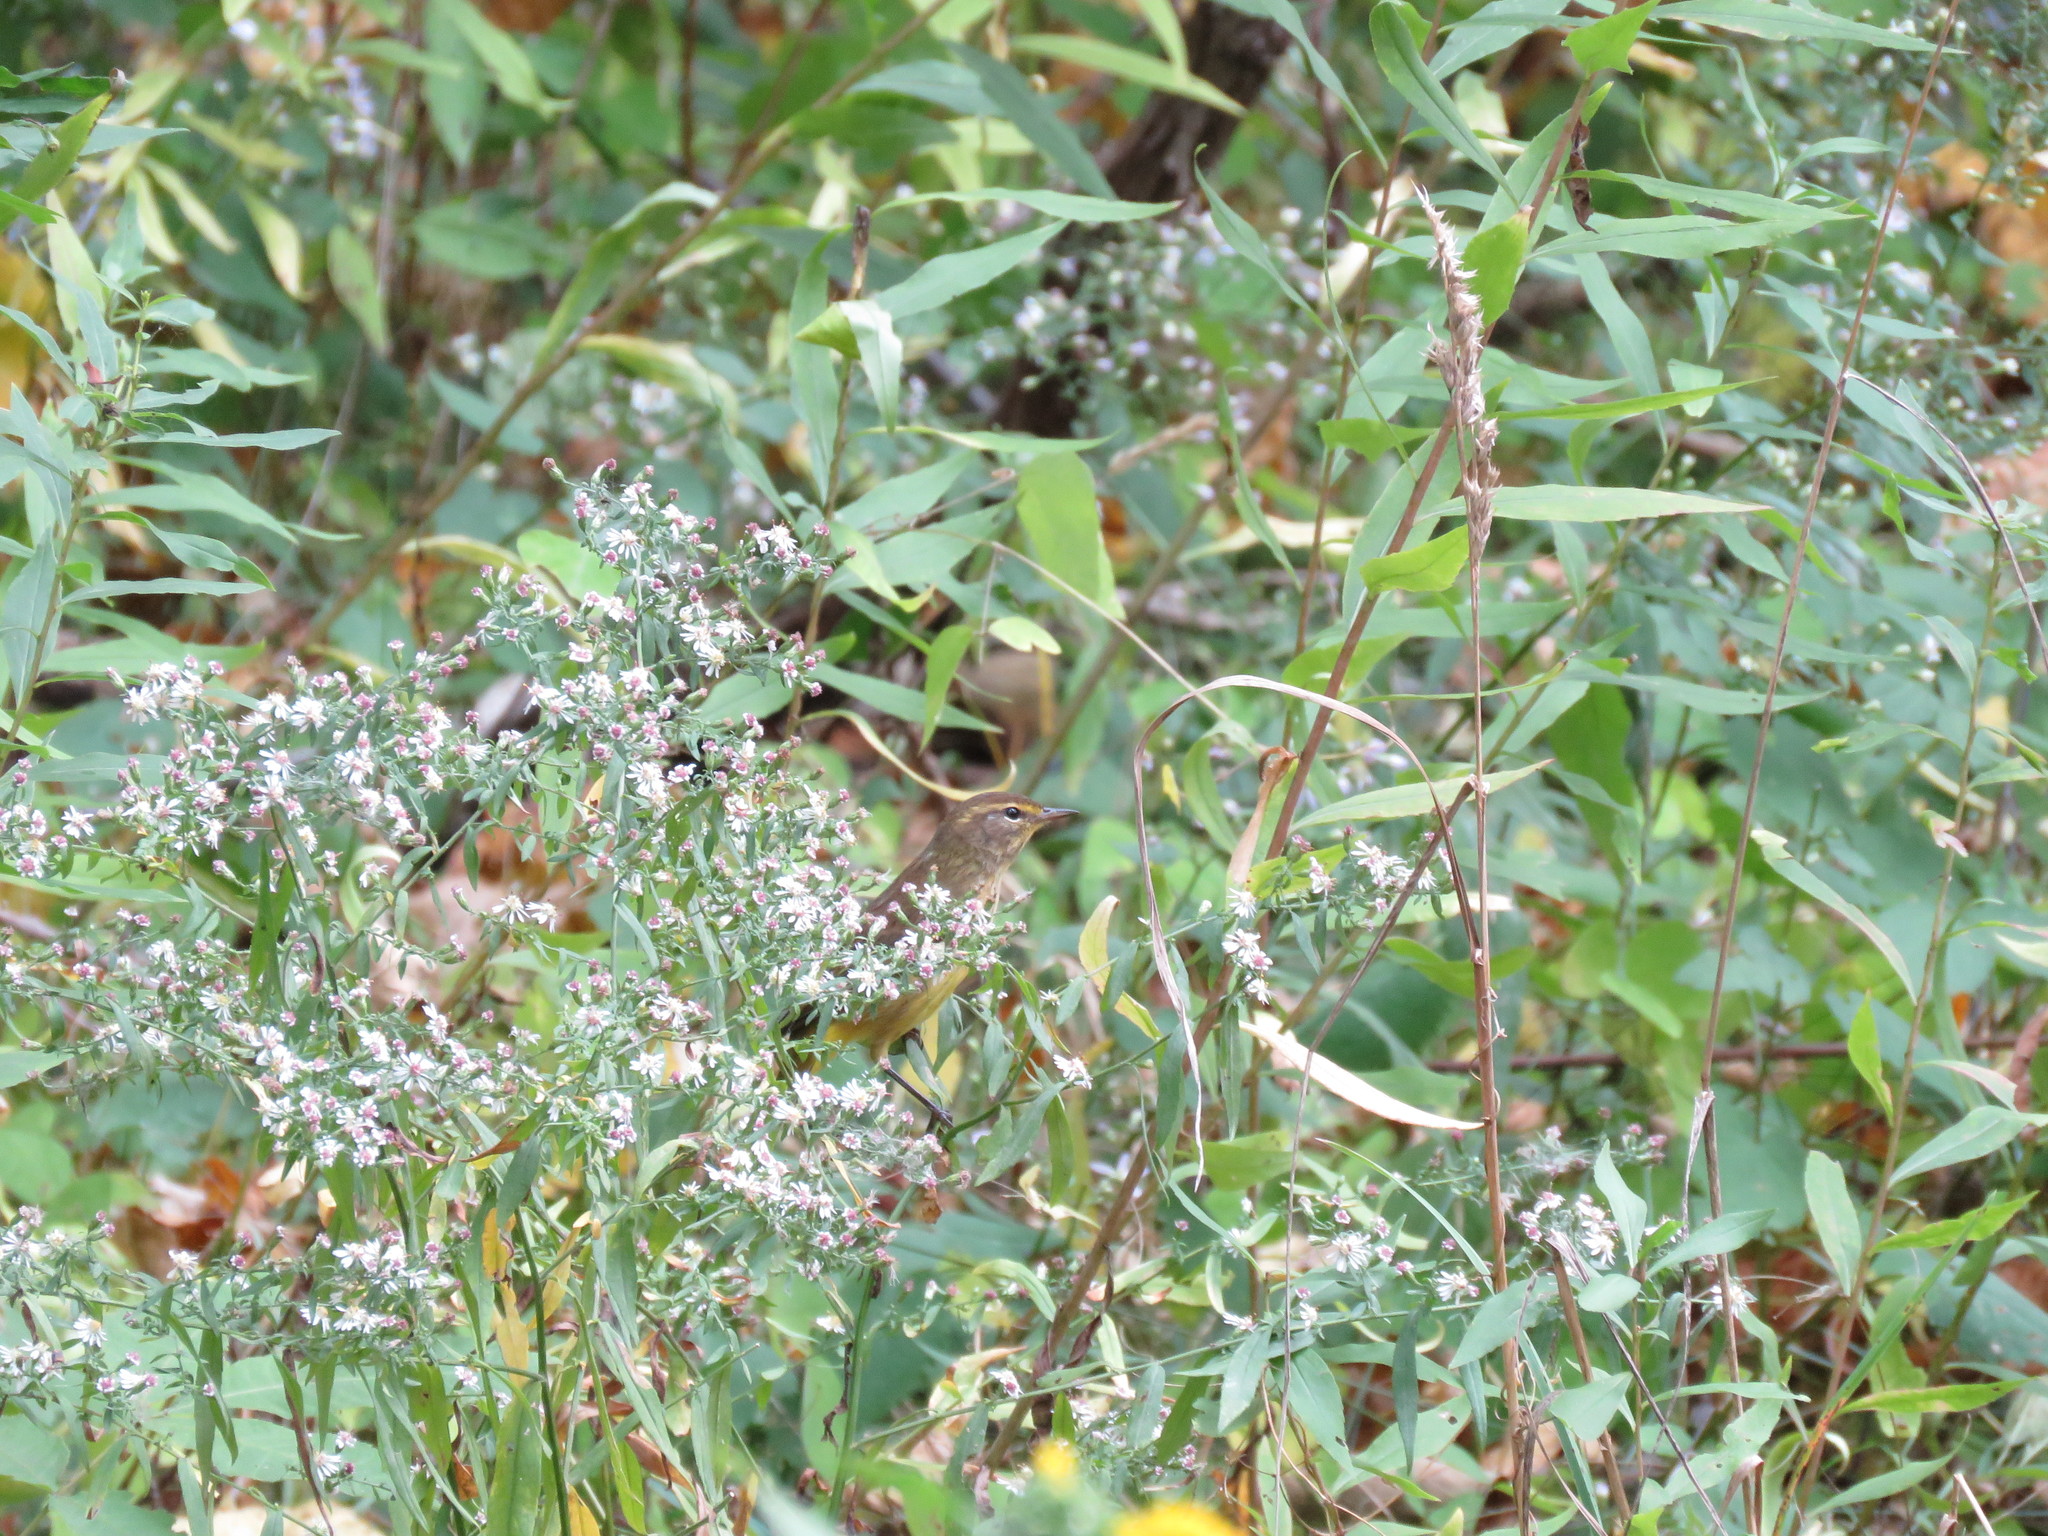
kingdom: Animalia
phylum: Chordata
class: Aves
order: Passeriformes
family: Parulidae
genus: Setophaga
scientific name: Setophaga palmarum
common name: Palm warbler
